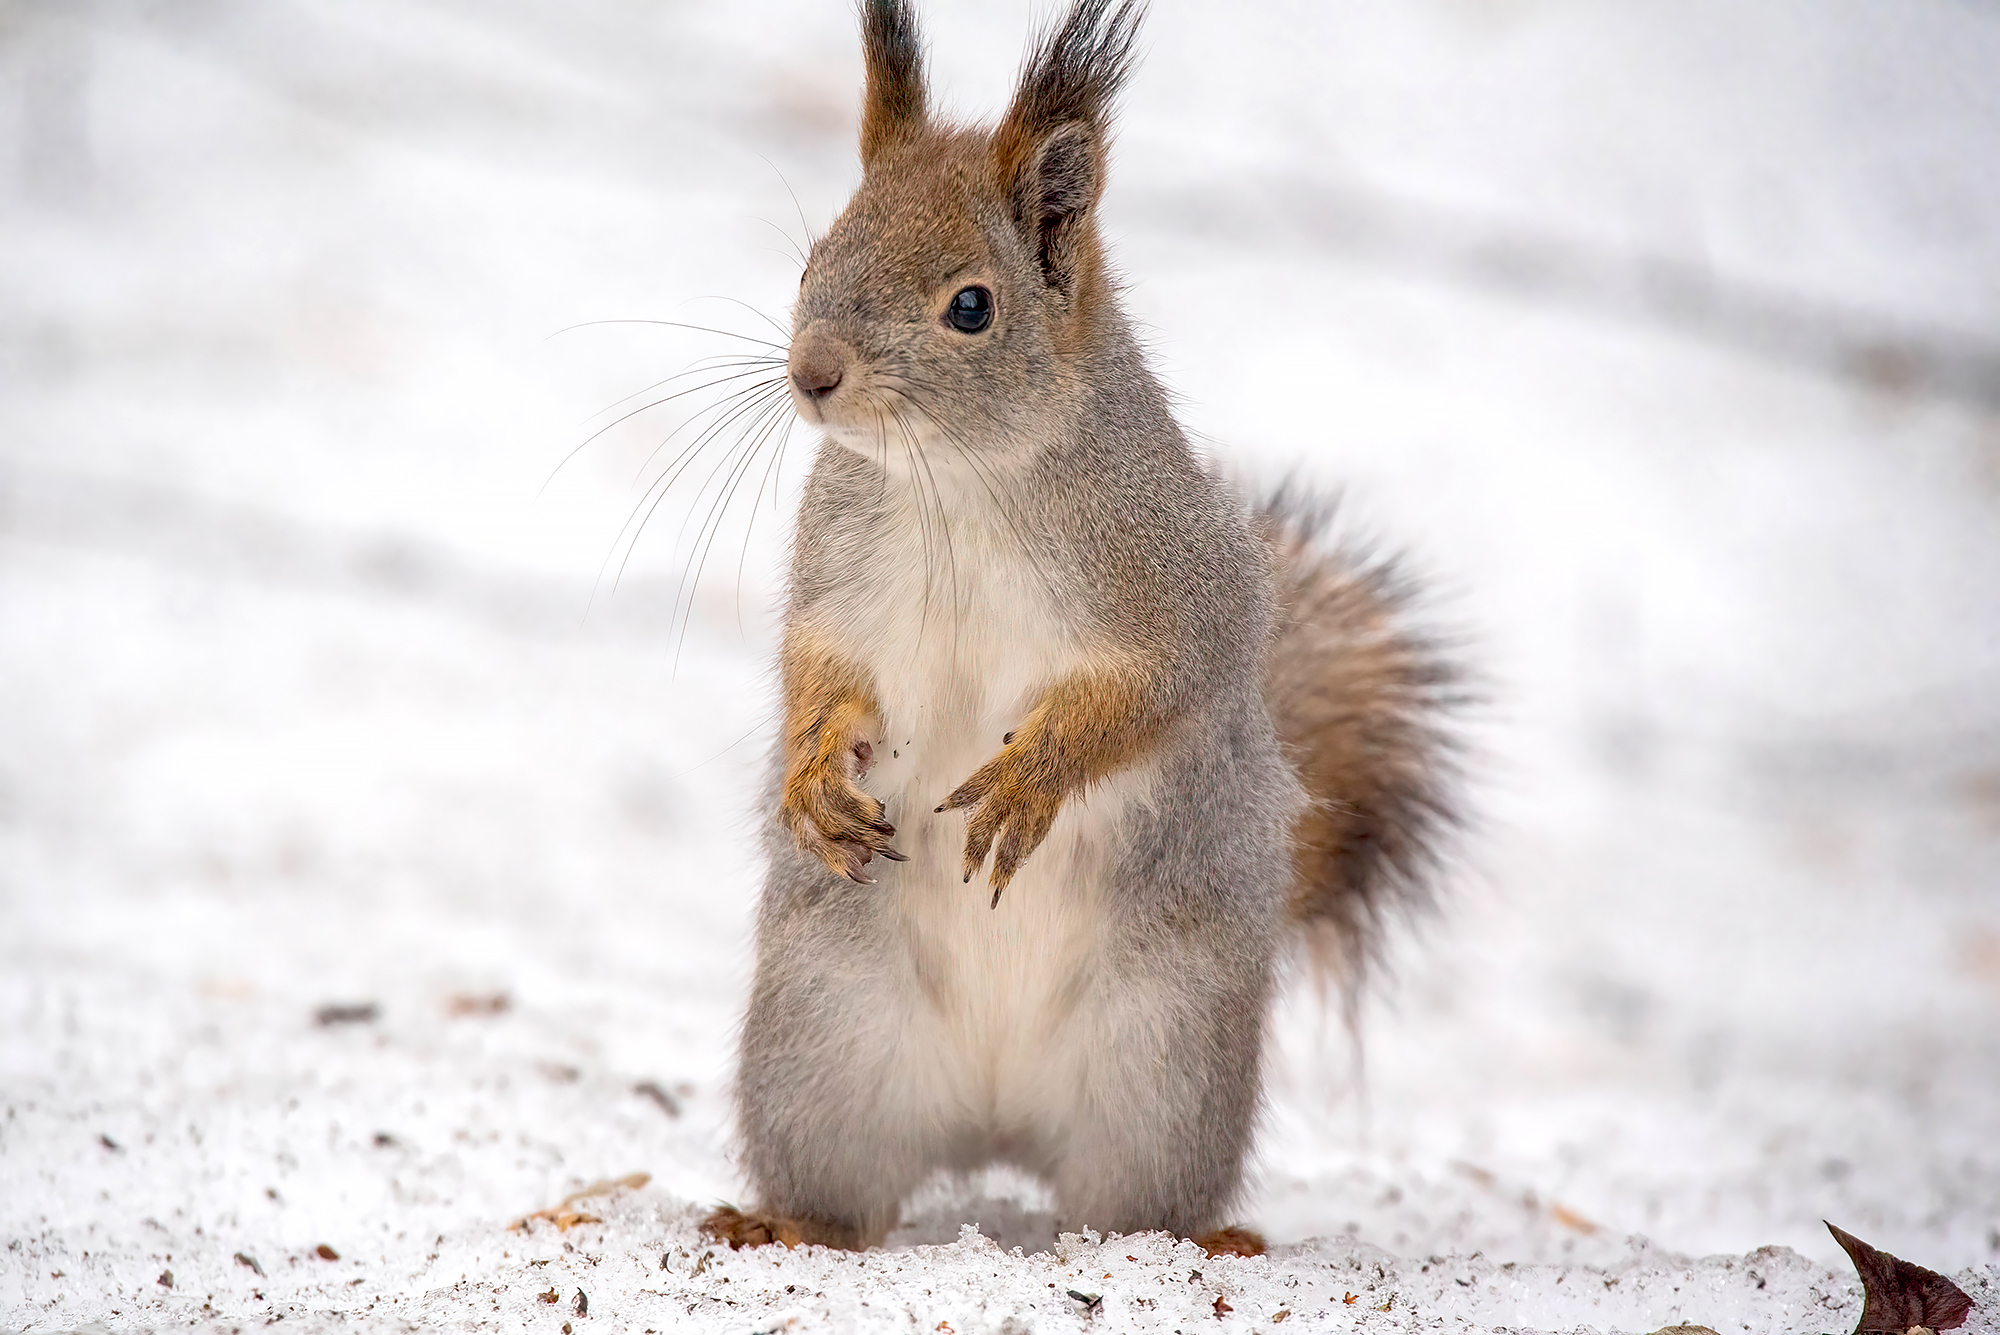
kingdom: Animalia
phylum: Chordata
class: Mammalia
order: Rodentia
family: Sciuridae
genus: Sciurus
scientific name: Sciurus vulgaris
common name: Eurasian red squirrel
